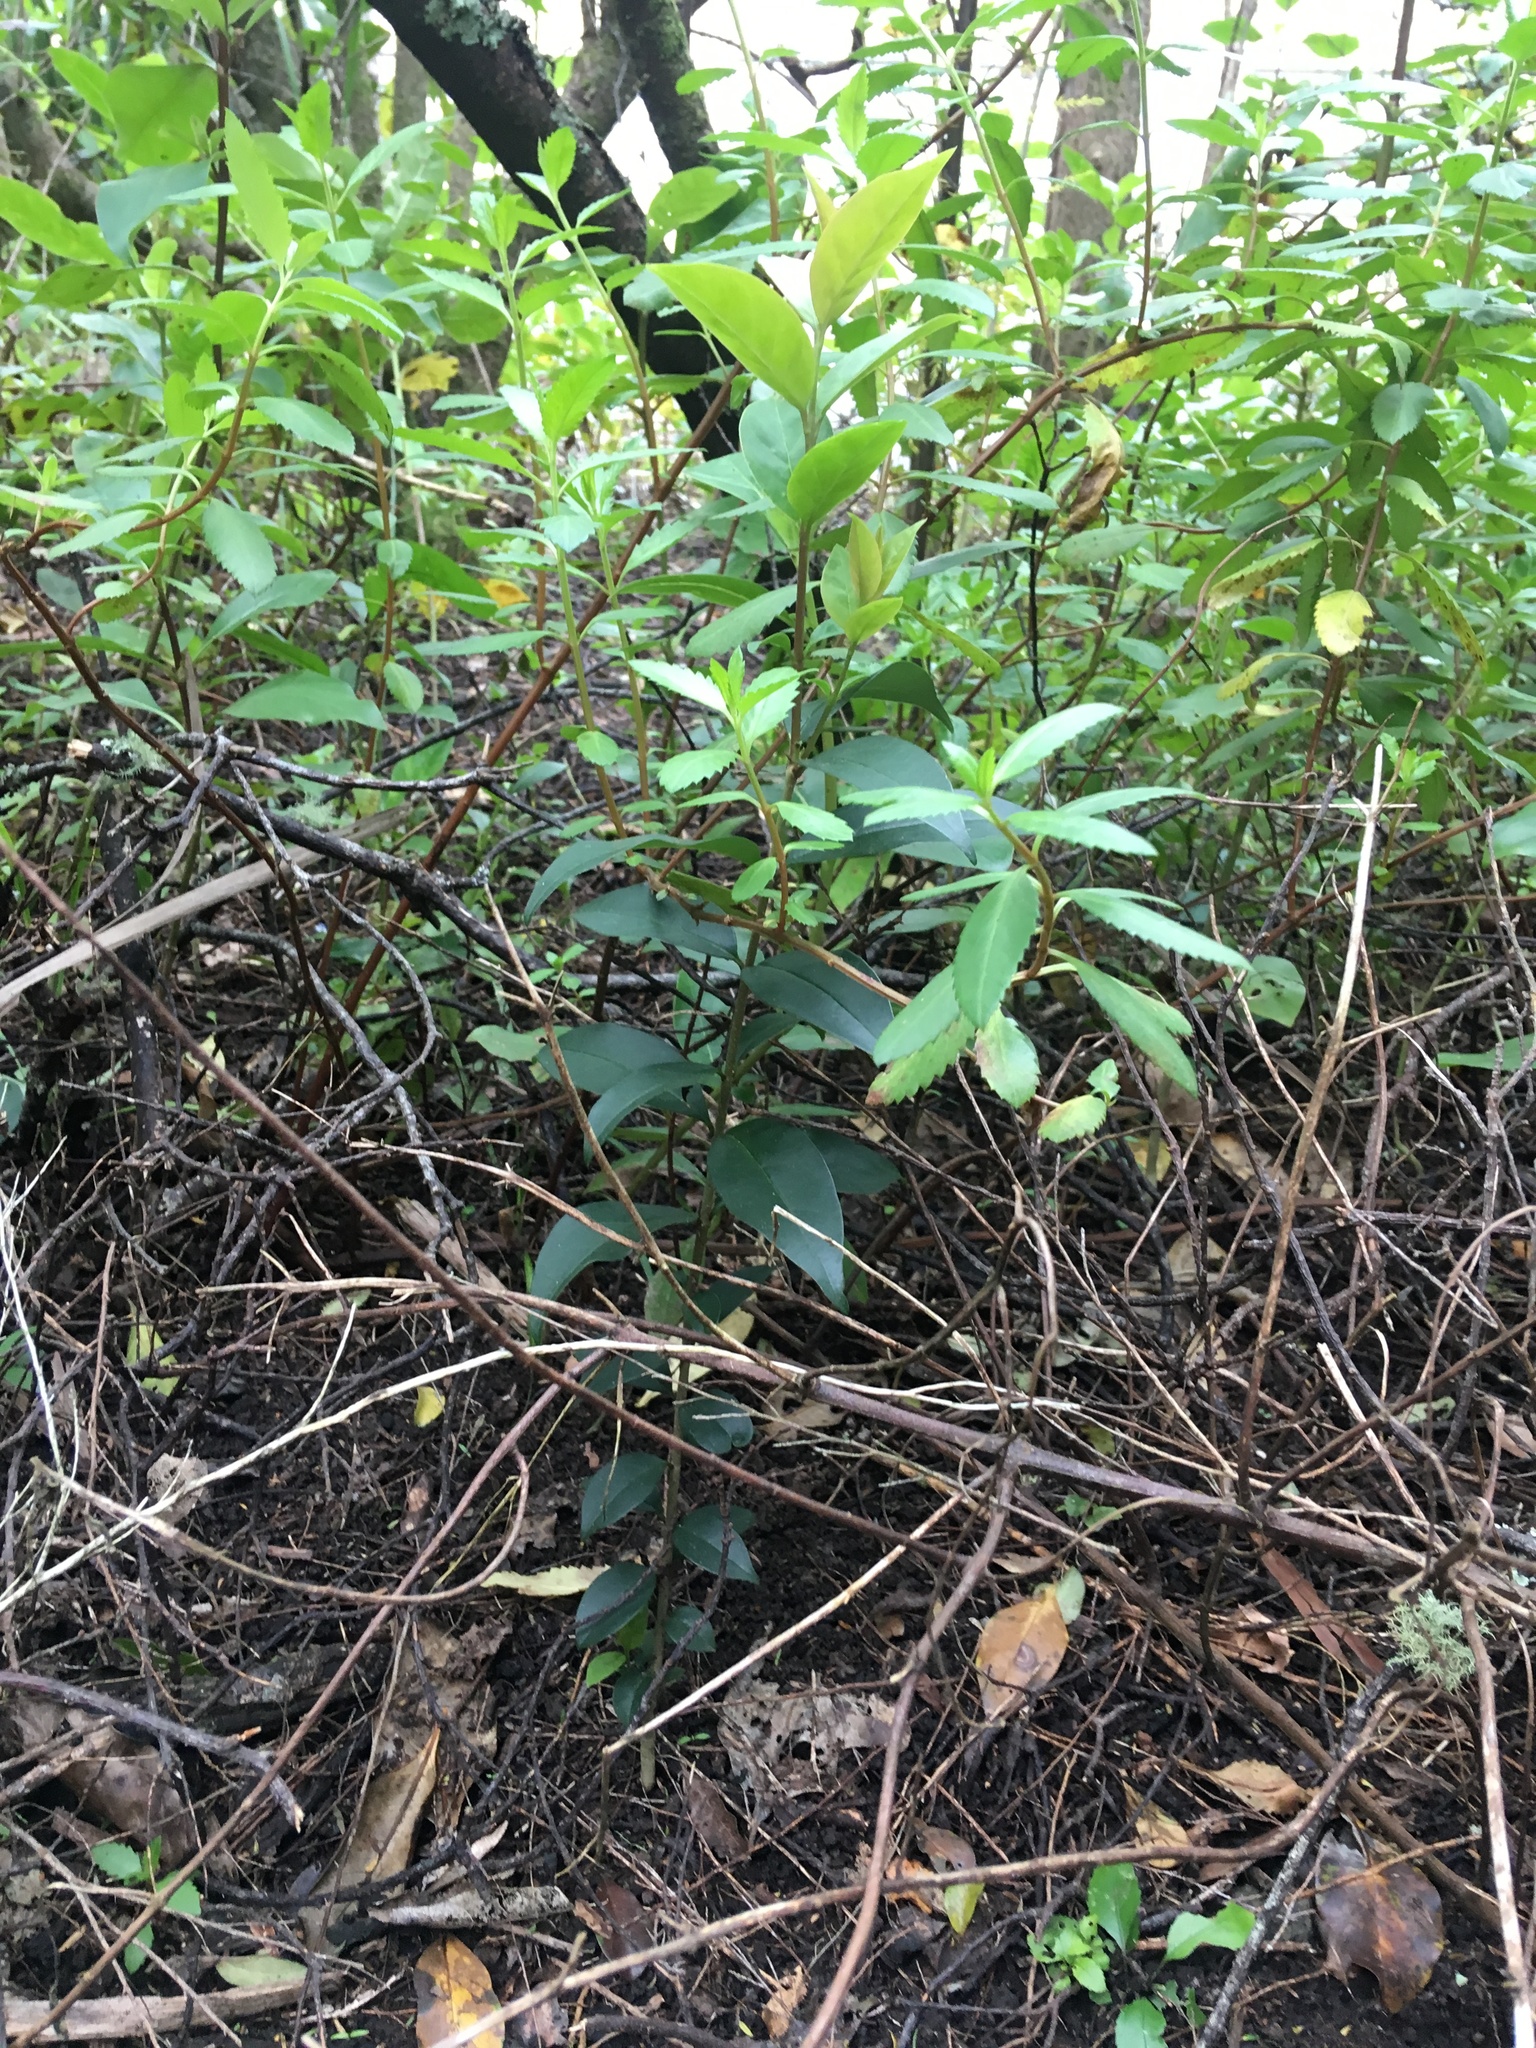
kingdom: Plantae
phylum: Tracheophyta
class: Magnoliopsida
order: Lamiales
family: Oleaceae
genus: Ligustrum
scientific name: Ligustrum lucidum
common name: Glossy privet
